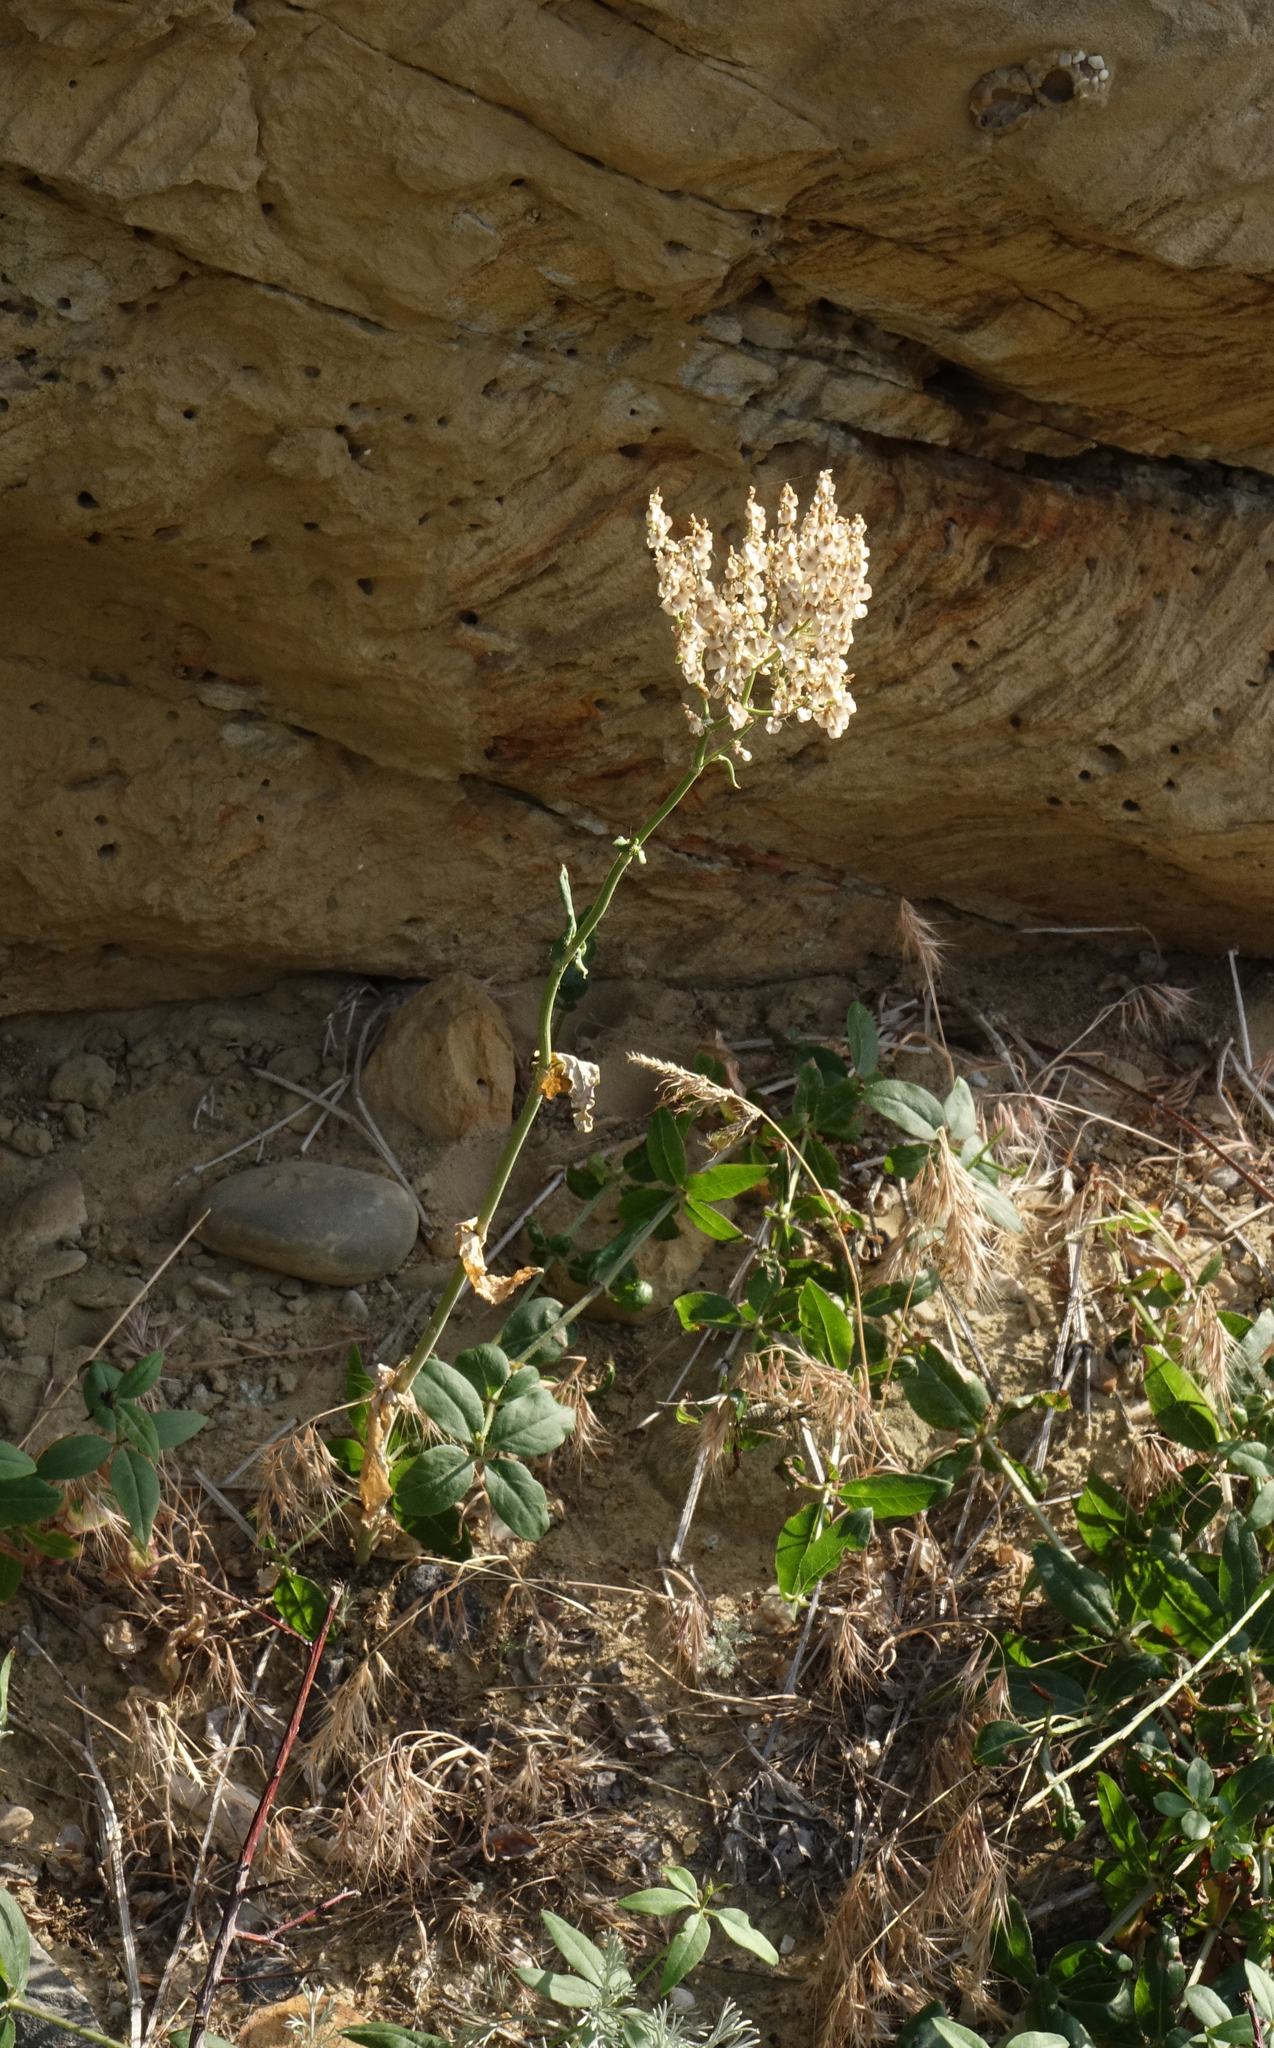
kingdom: Plantae
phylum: Tracheophyta
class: Magnoliopsida
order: Caryophyllales
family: Polygonaceae
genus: Rumex
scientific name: Rumex tuberosus
